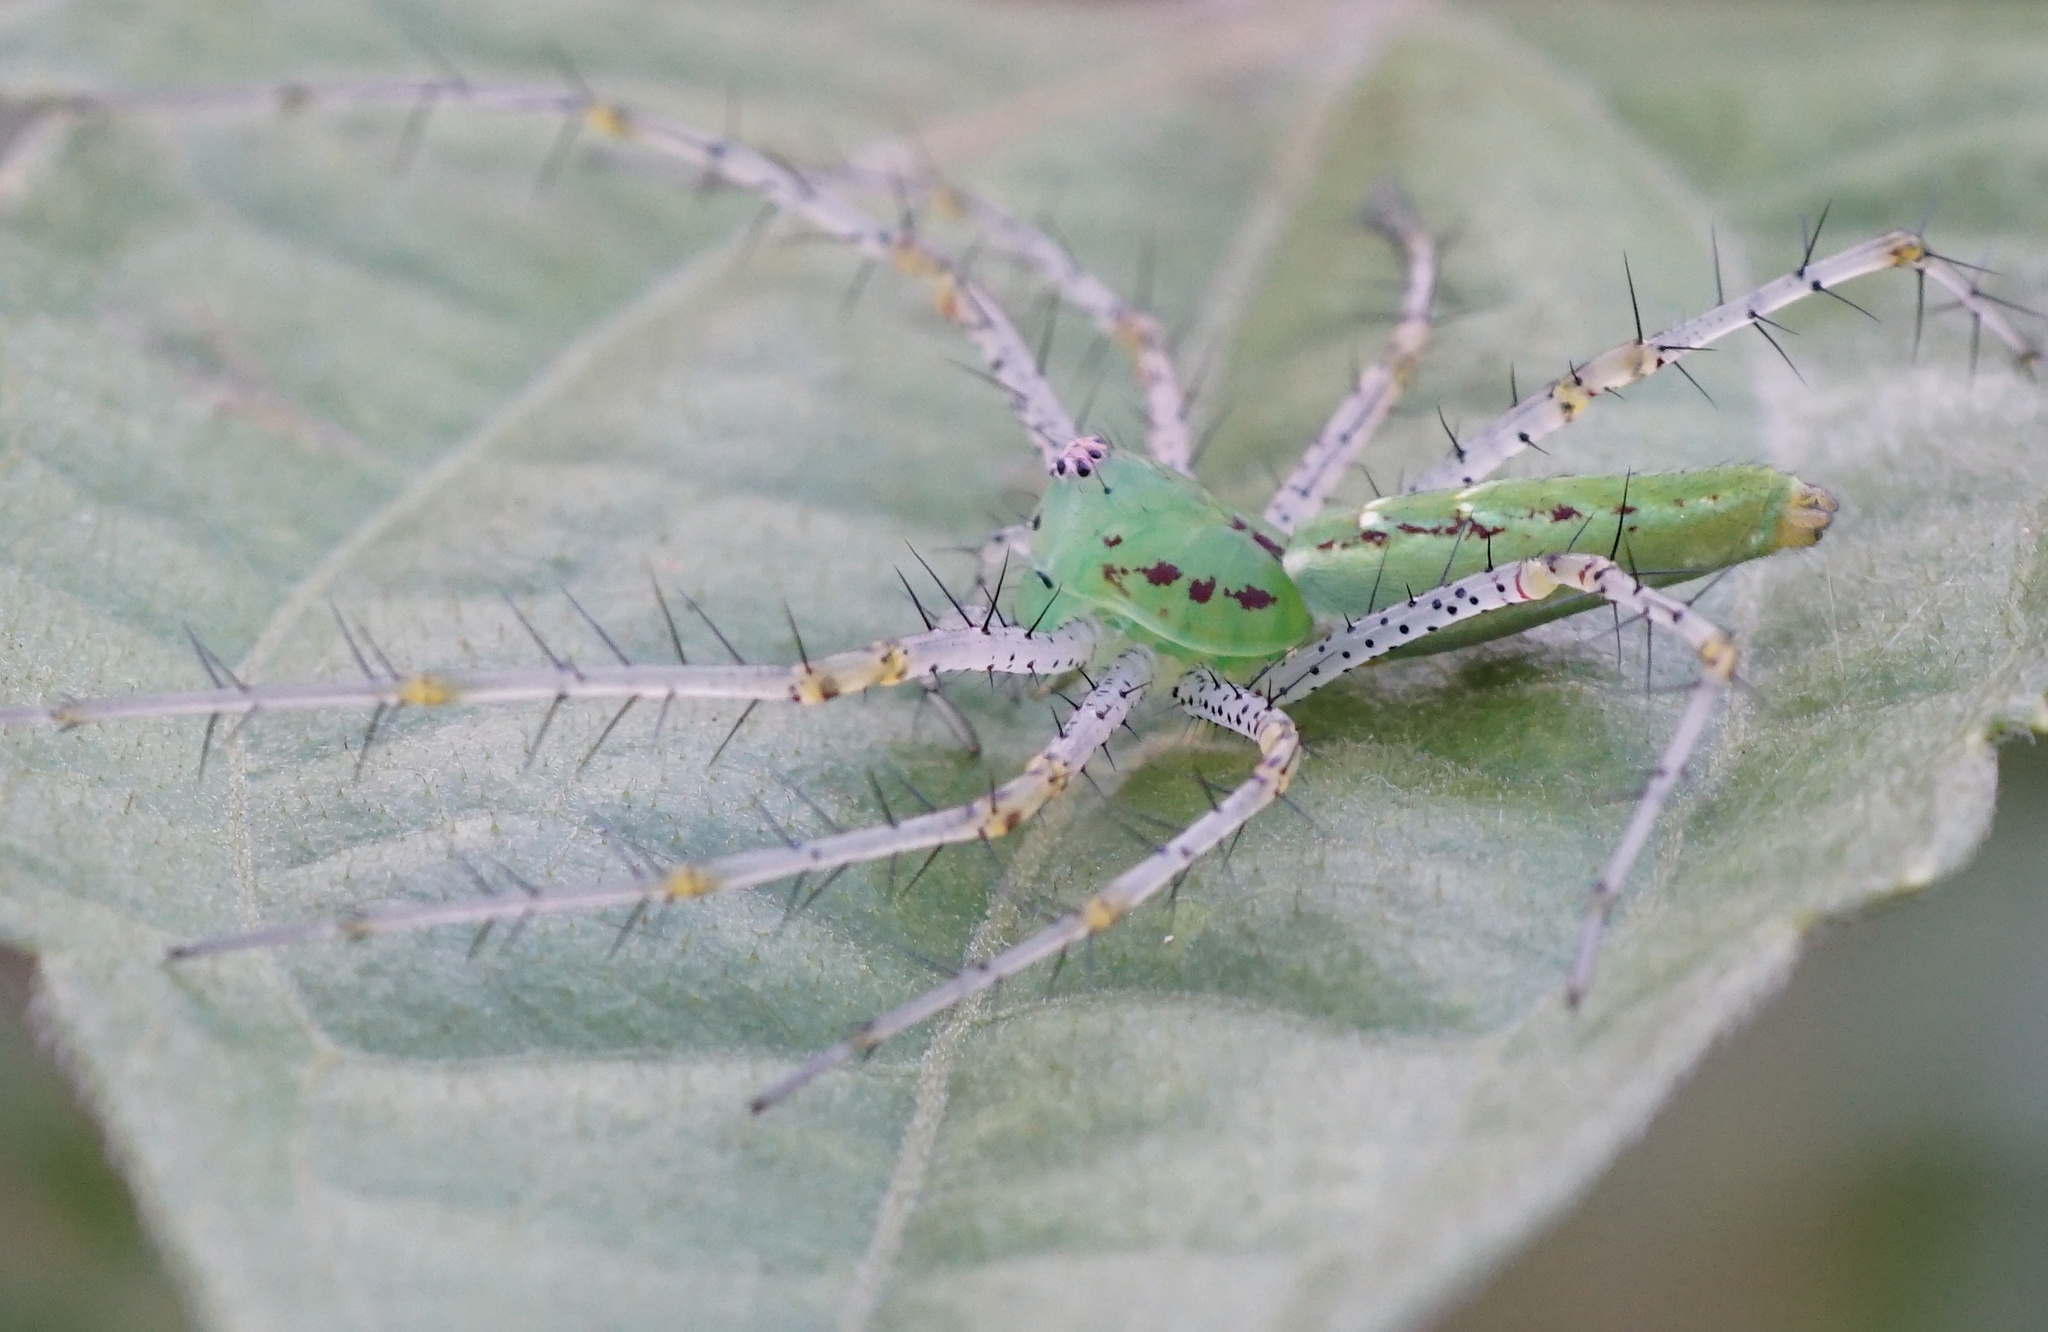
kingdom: Animalia
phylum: Arthropoda
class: Arachnida
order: Araneae
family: Oxyopidae
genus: Peucetia
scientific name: Peucetia viridans
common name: Lynx spiders
